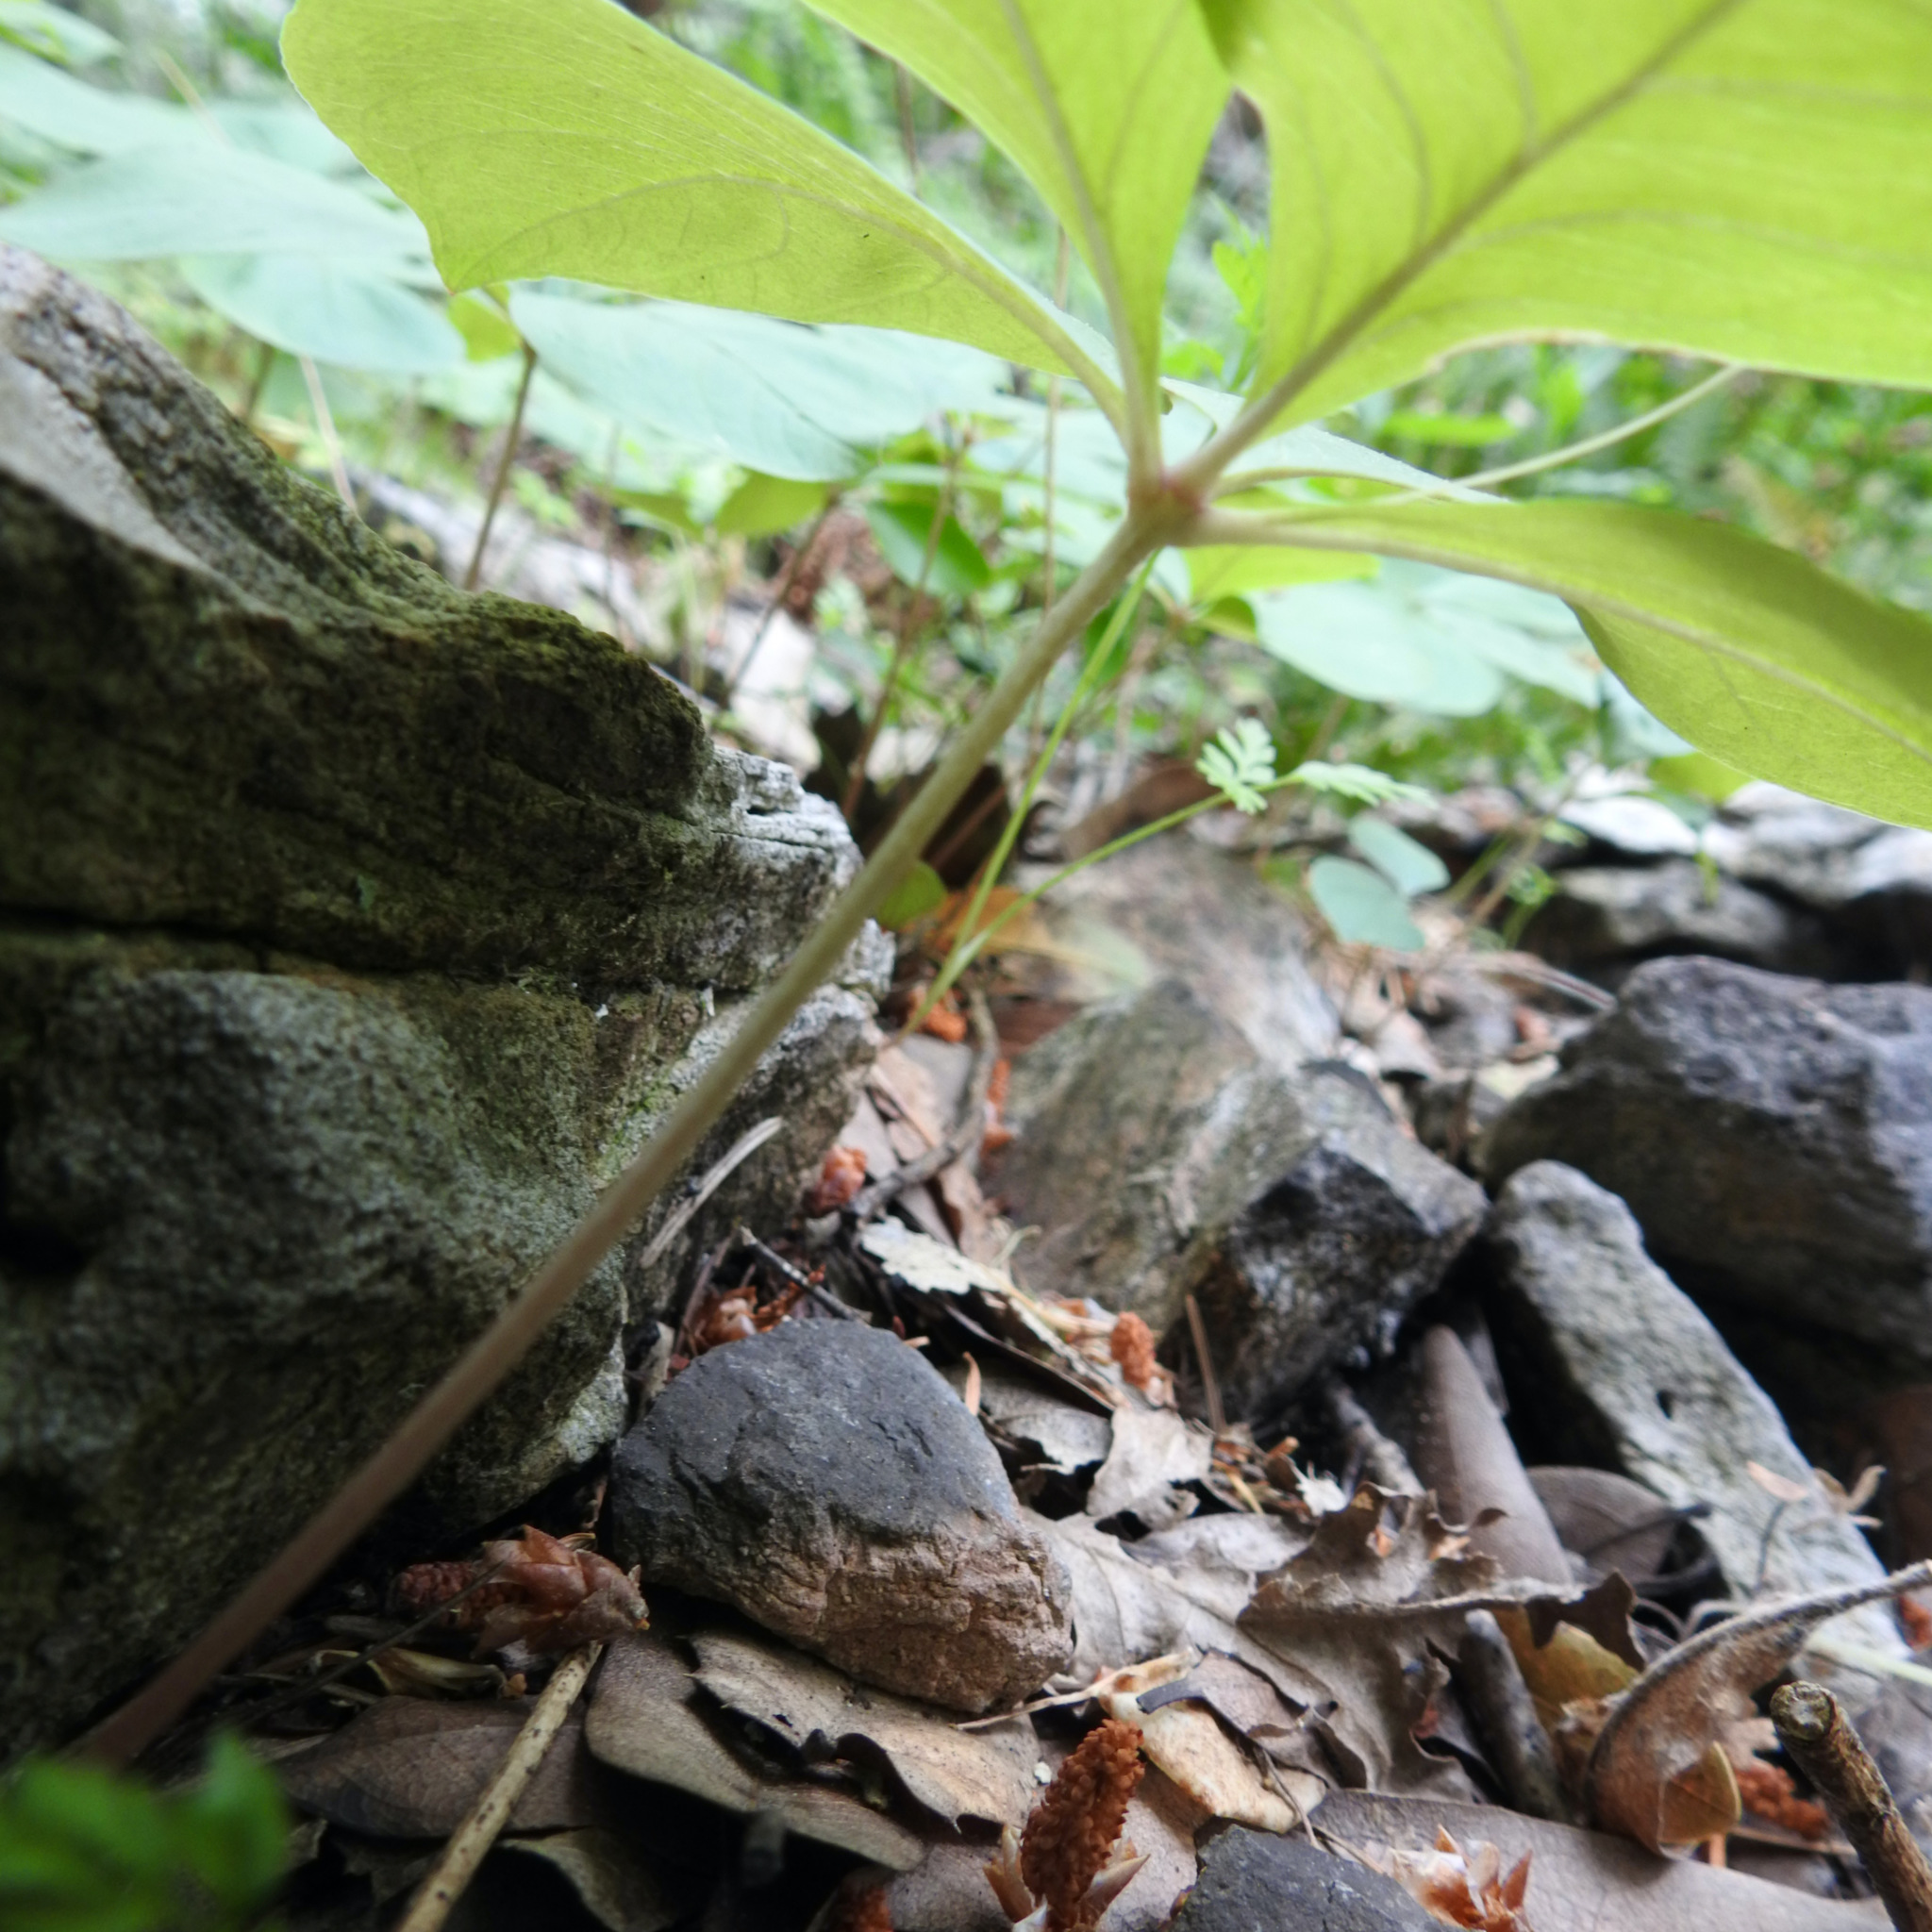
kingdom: Plantae
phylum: Tracheophyta
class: Magnoliopsida
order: Ericales
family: Primulaceae
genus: Lysimachia
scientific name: Lysimachia latifolia
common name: Pacific starflower
